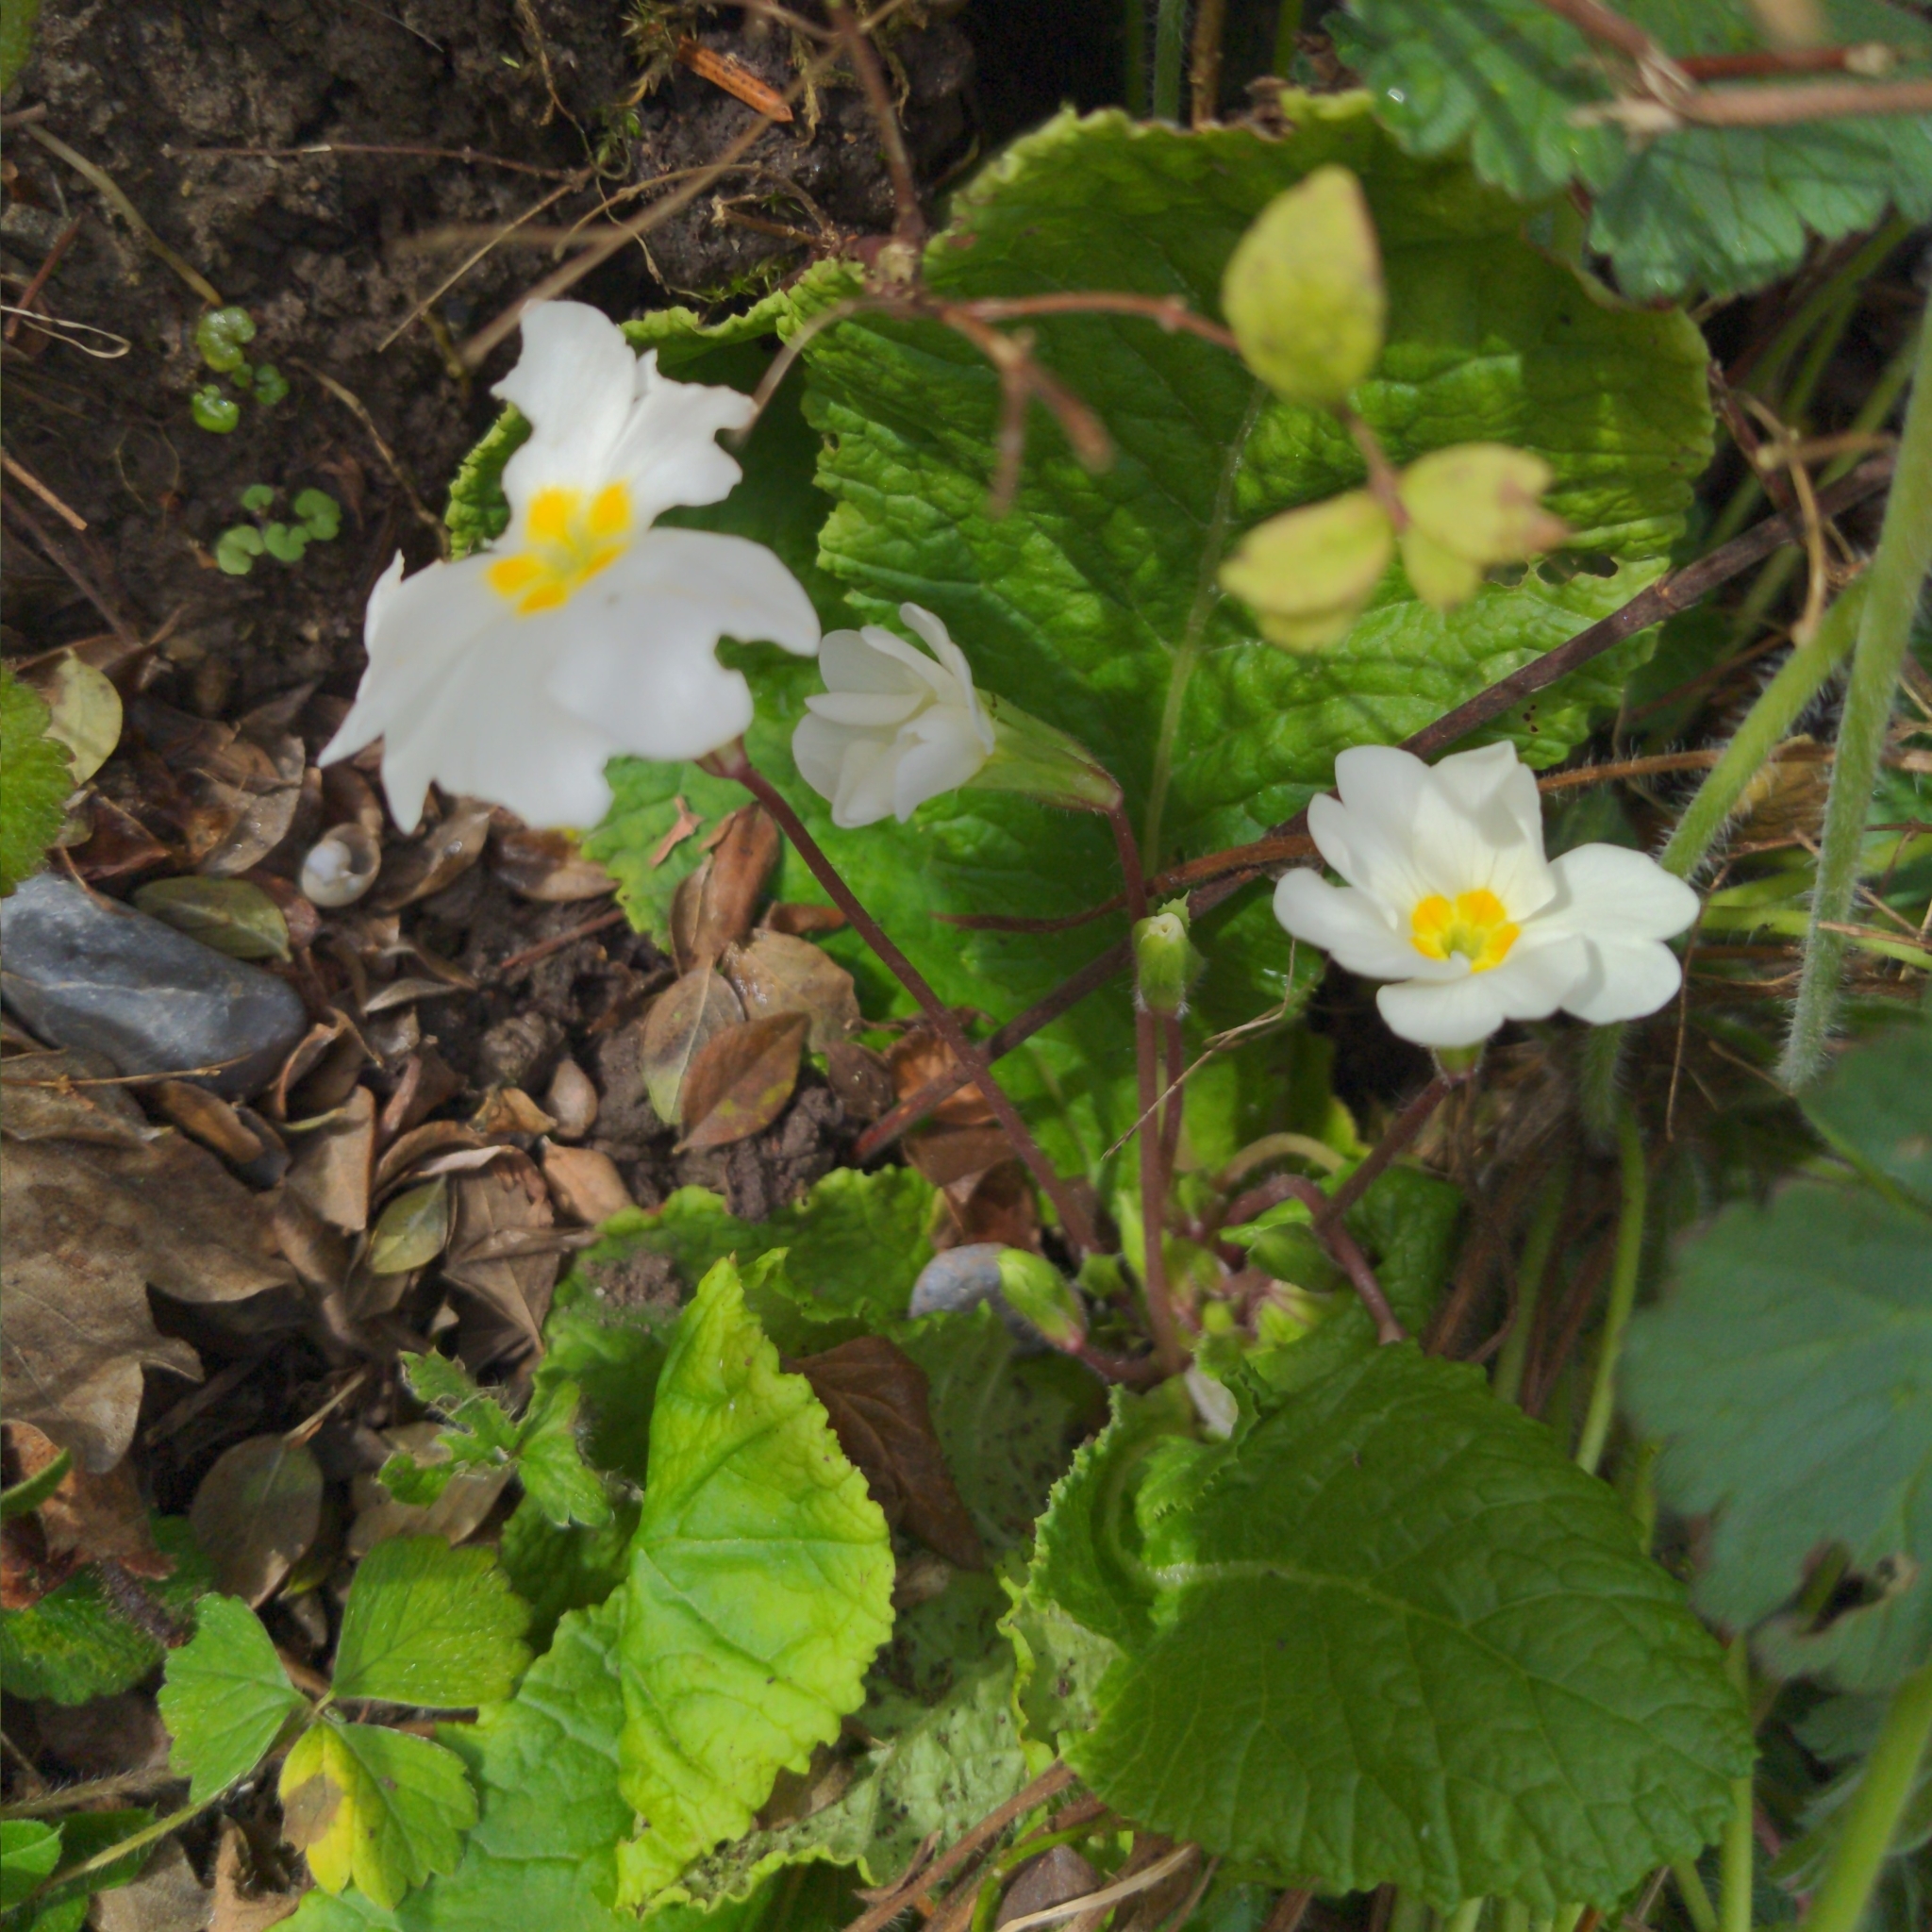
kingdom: Plantae
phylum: Tracheophyta
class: Magnoliopsida
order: Ericales
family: Primulaceae
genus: Primula
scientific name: Primula vulgaris
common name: Primrose
